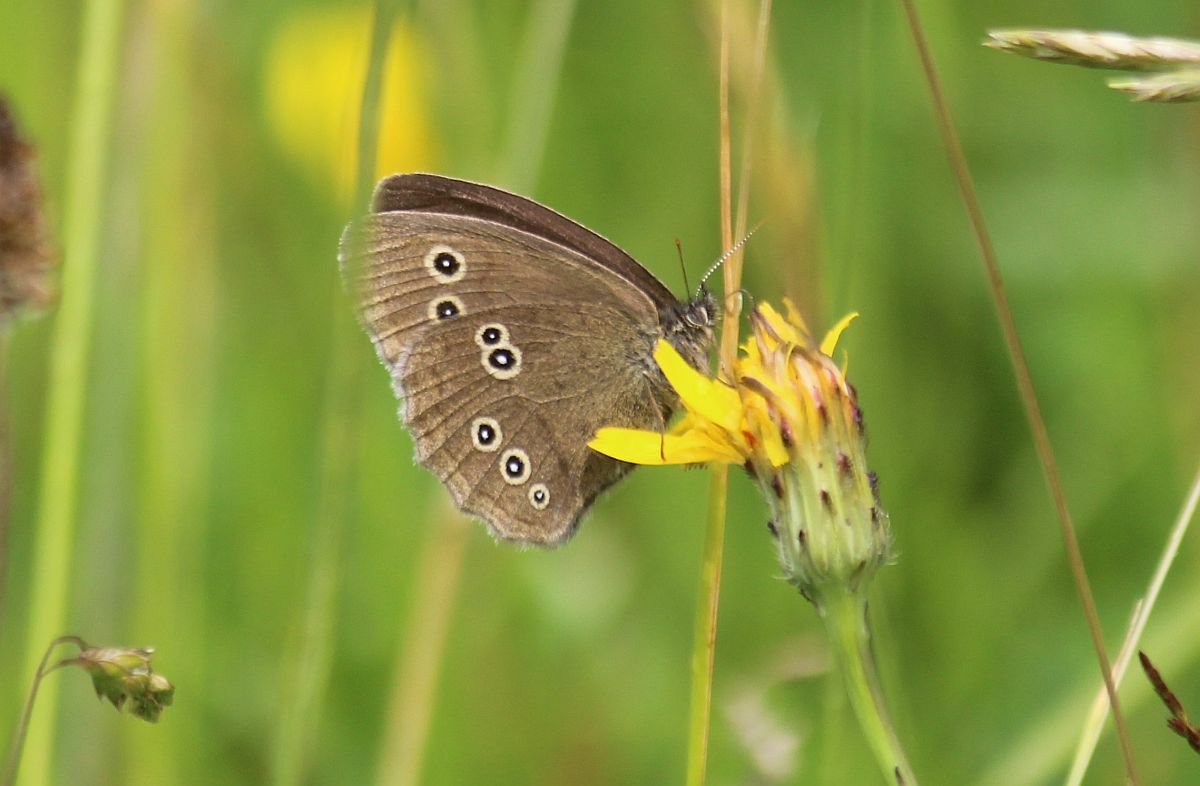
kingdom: Animalia
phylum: Arthropoda
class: Insecta
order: Lepidoptera
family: Nymphalidae
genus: Aphantopus
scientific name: Aphantopus hyperantus
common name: Ringlet
